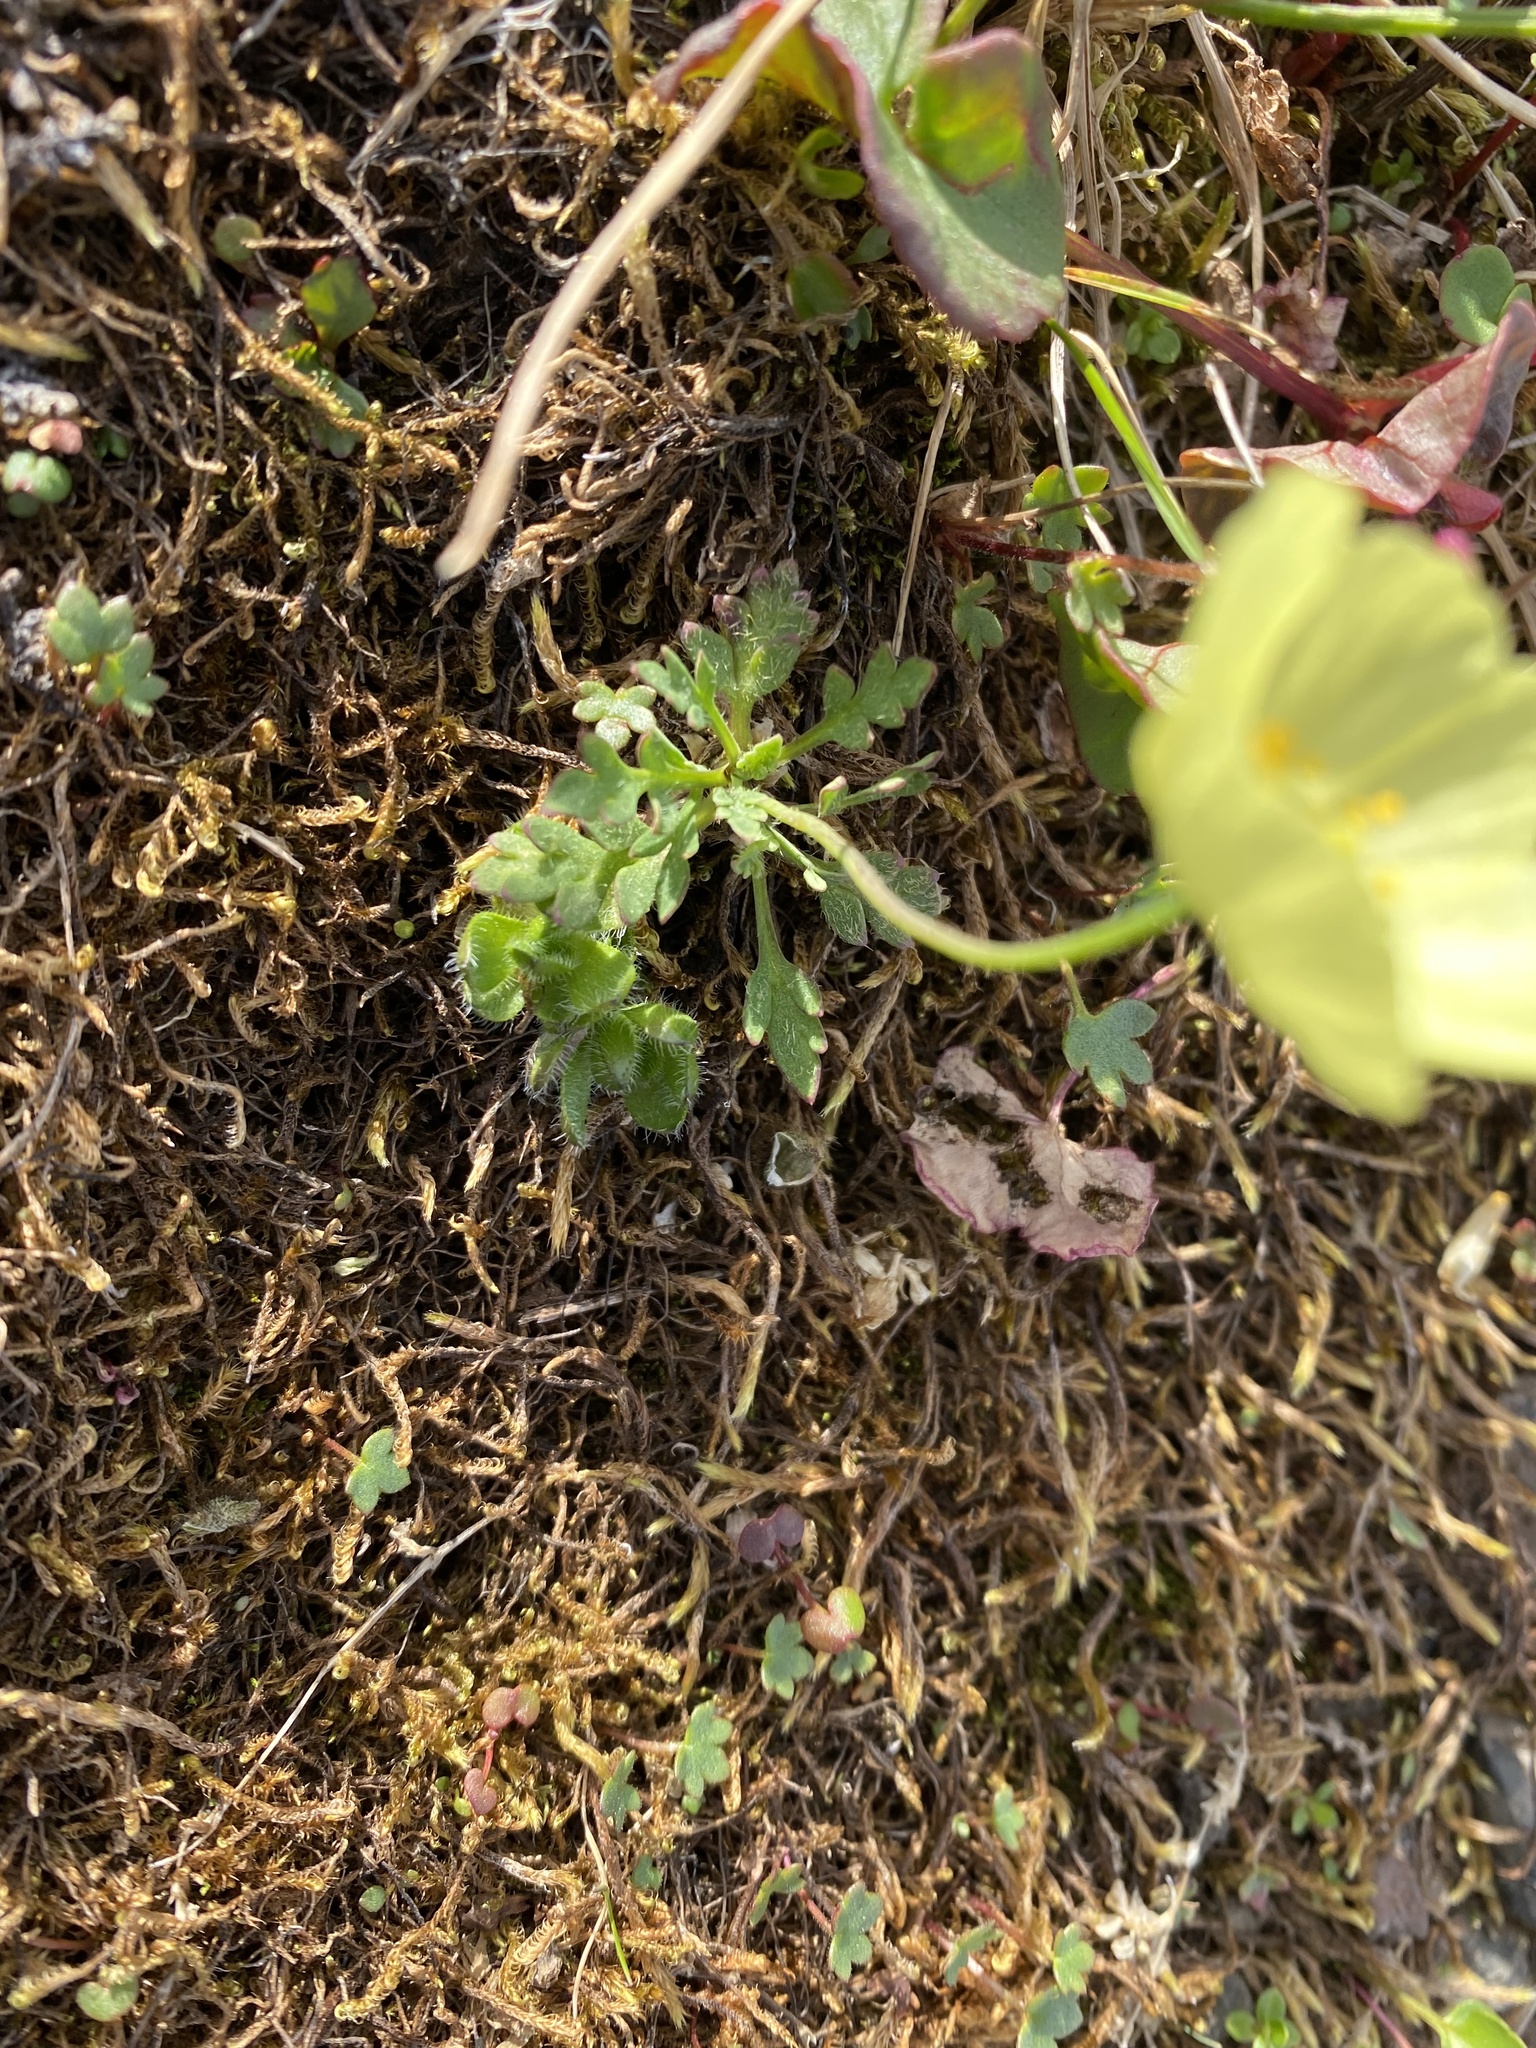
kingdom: Plantae
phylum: Tracheophyta
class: Magnoliopsida
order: Ranunculales
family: Papaveraceae
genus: Papaver
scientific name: Papaver lapponicum
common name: Lapland poppy
